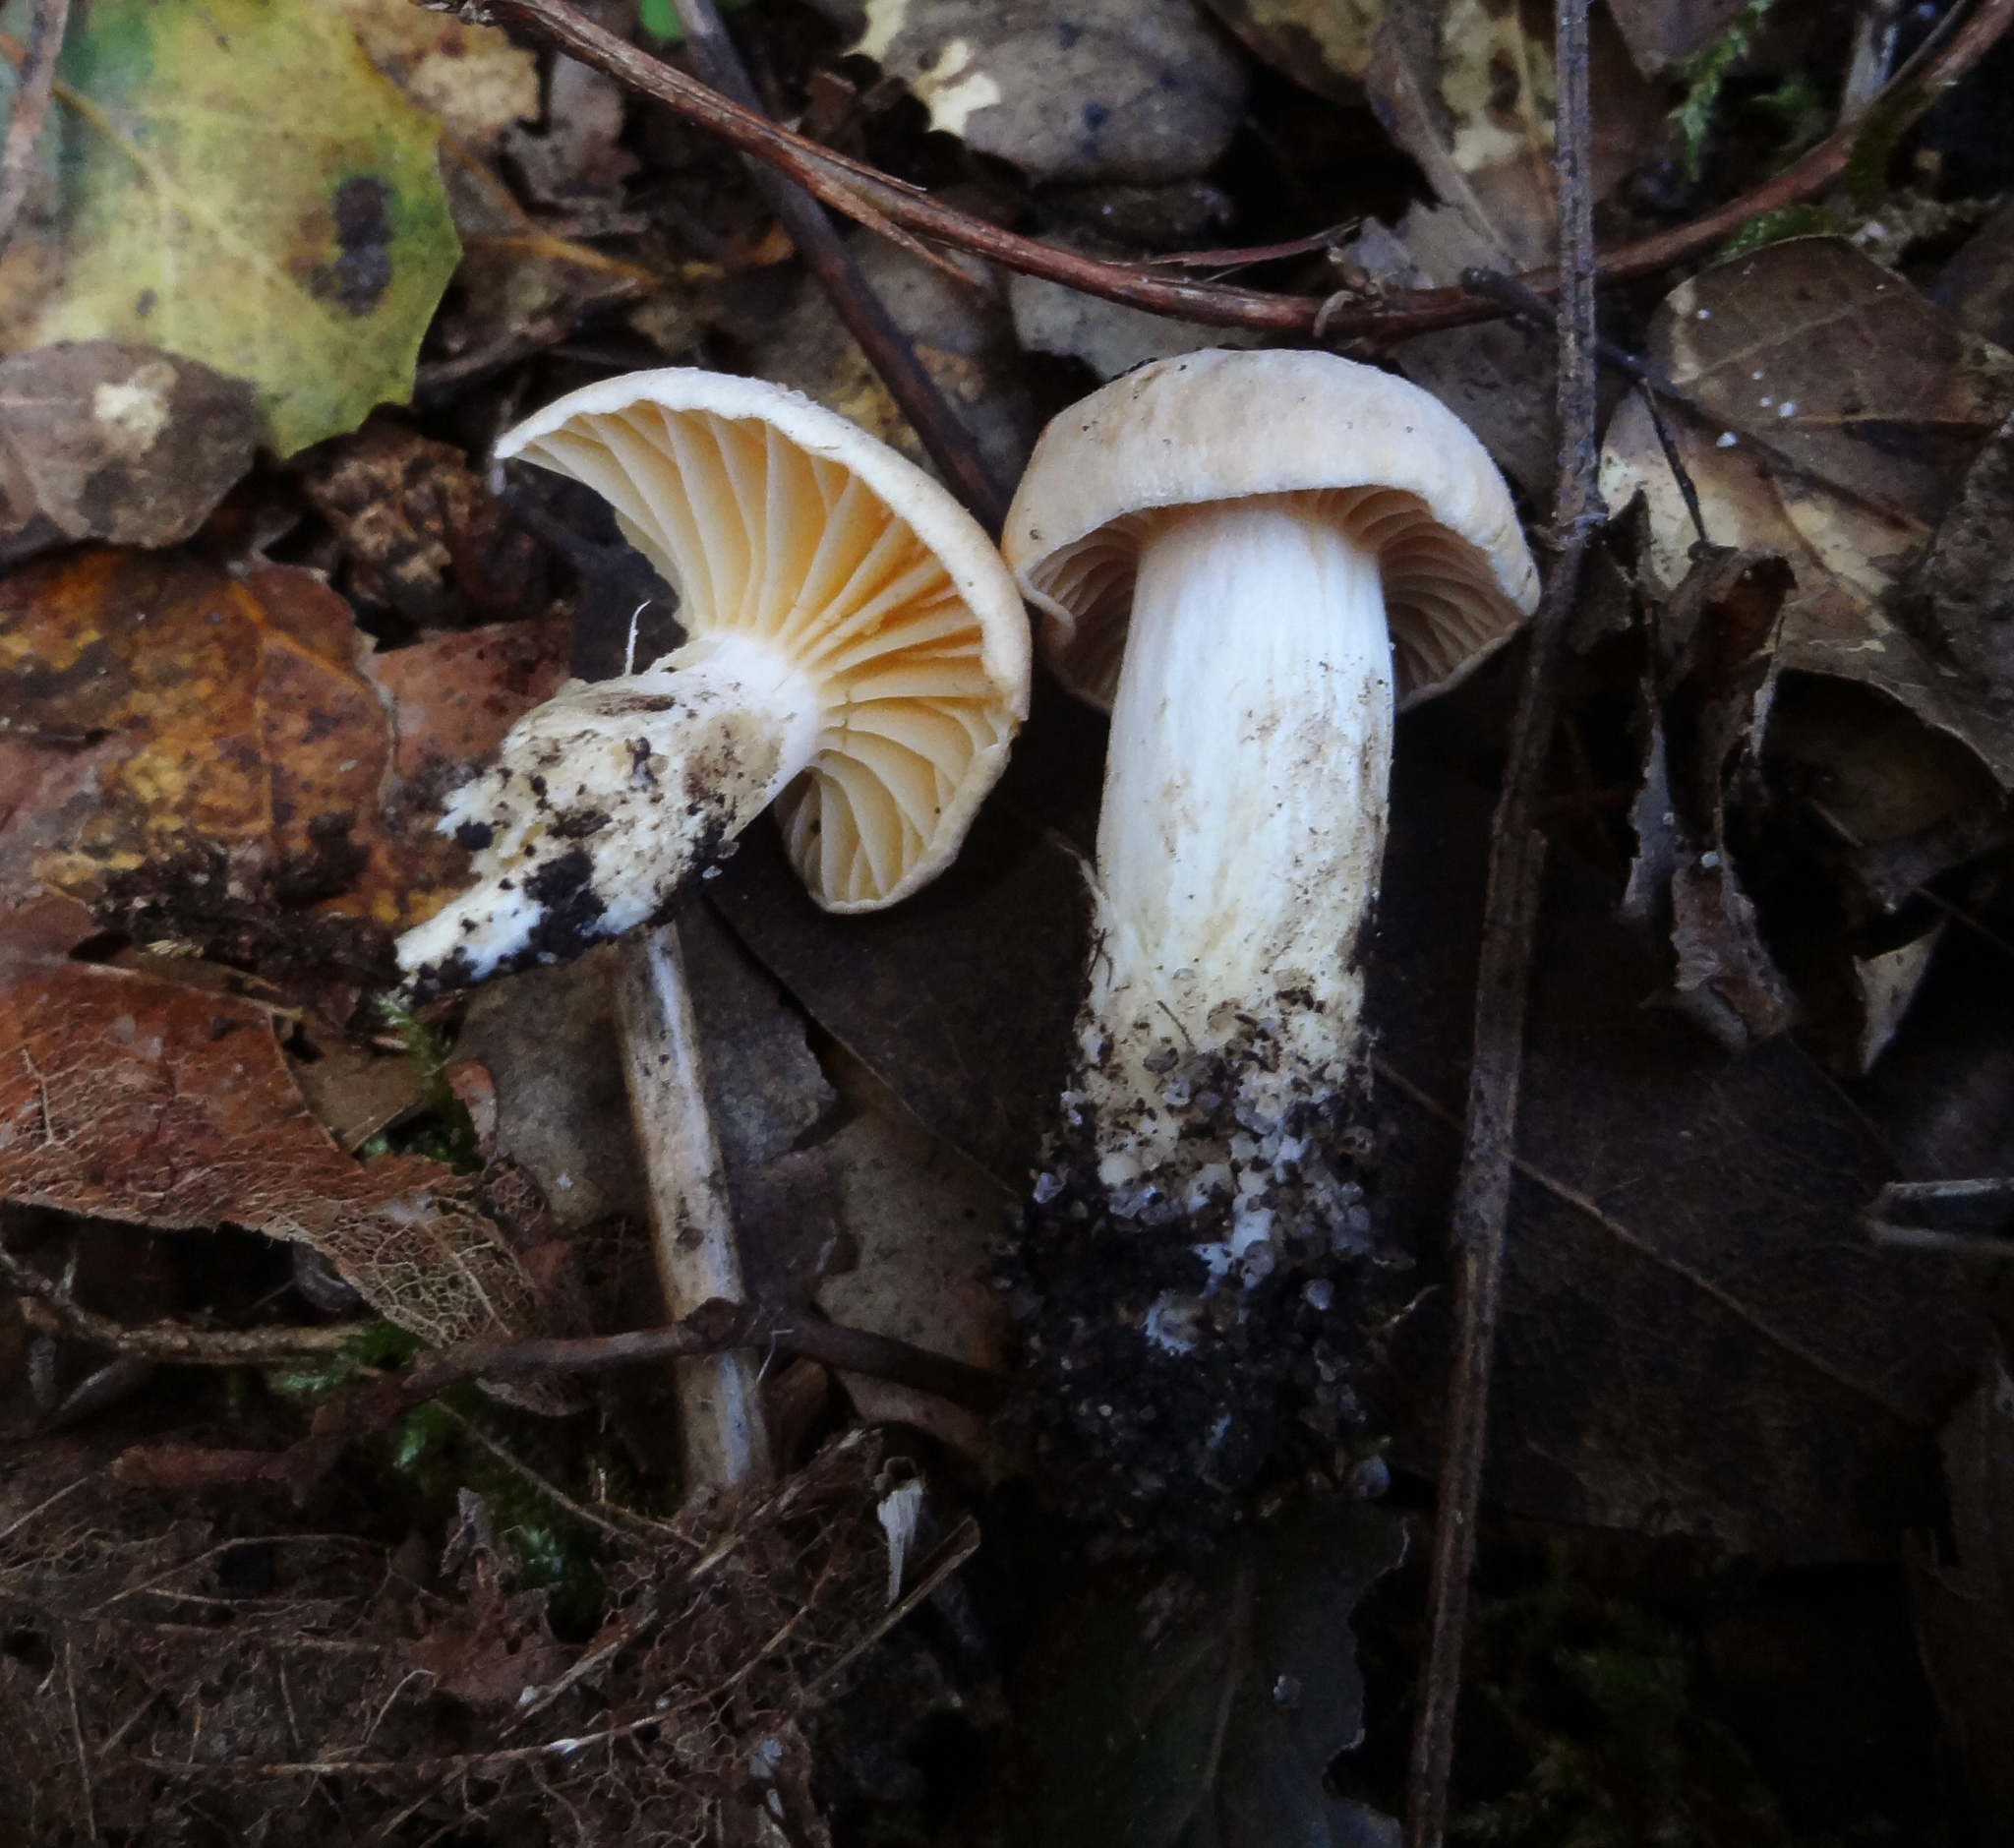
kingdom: Fungi
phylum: Basidiomycota
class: Agaricomycetes
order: Agaricales
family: Hygrophoraceae
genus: Cuphophyllus
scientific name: Cuphophyllus pratensis
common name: Meadow waxcap
